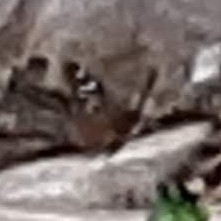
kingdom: Animalia
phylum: Arthropoda
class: Insecta
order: Lepidoptera
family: Nymphalidae
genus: Asterocampa
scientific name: Asterocampa celtis
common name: Hackberry emperor
